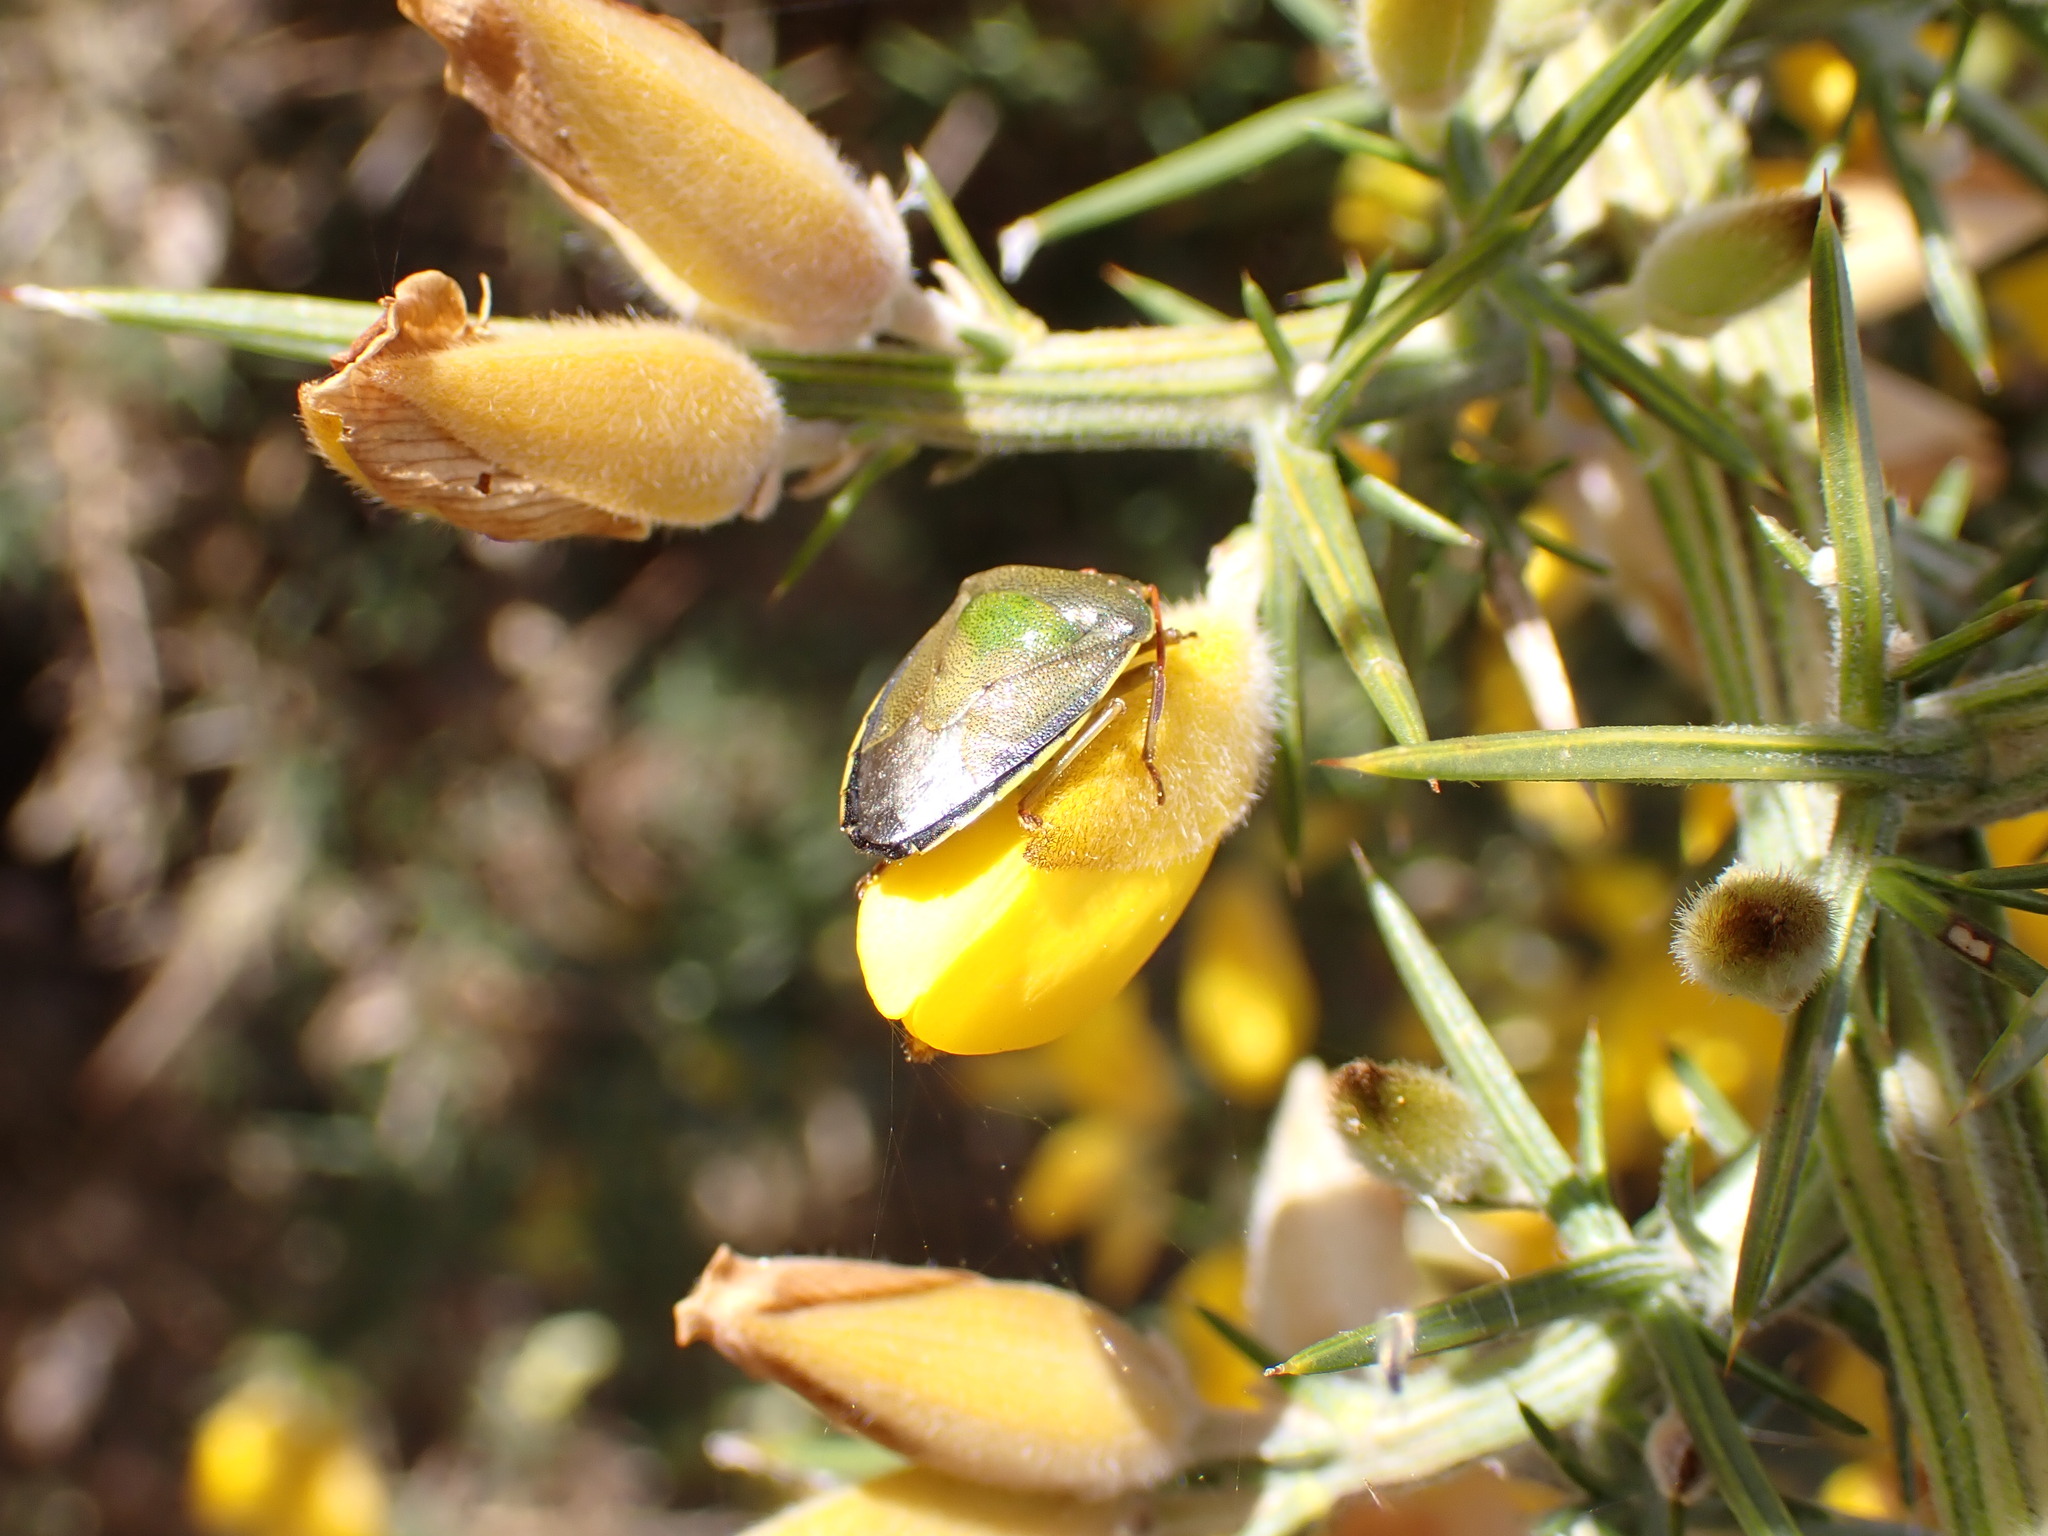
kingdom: Animalia
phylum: Arthropoda
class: Insecta
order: Hemiptera
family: Pentatomidae
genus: Piezodorus
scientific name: Piezodorus lituratus
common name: Stink bug
